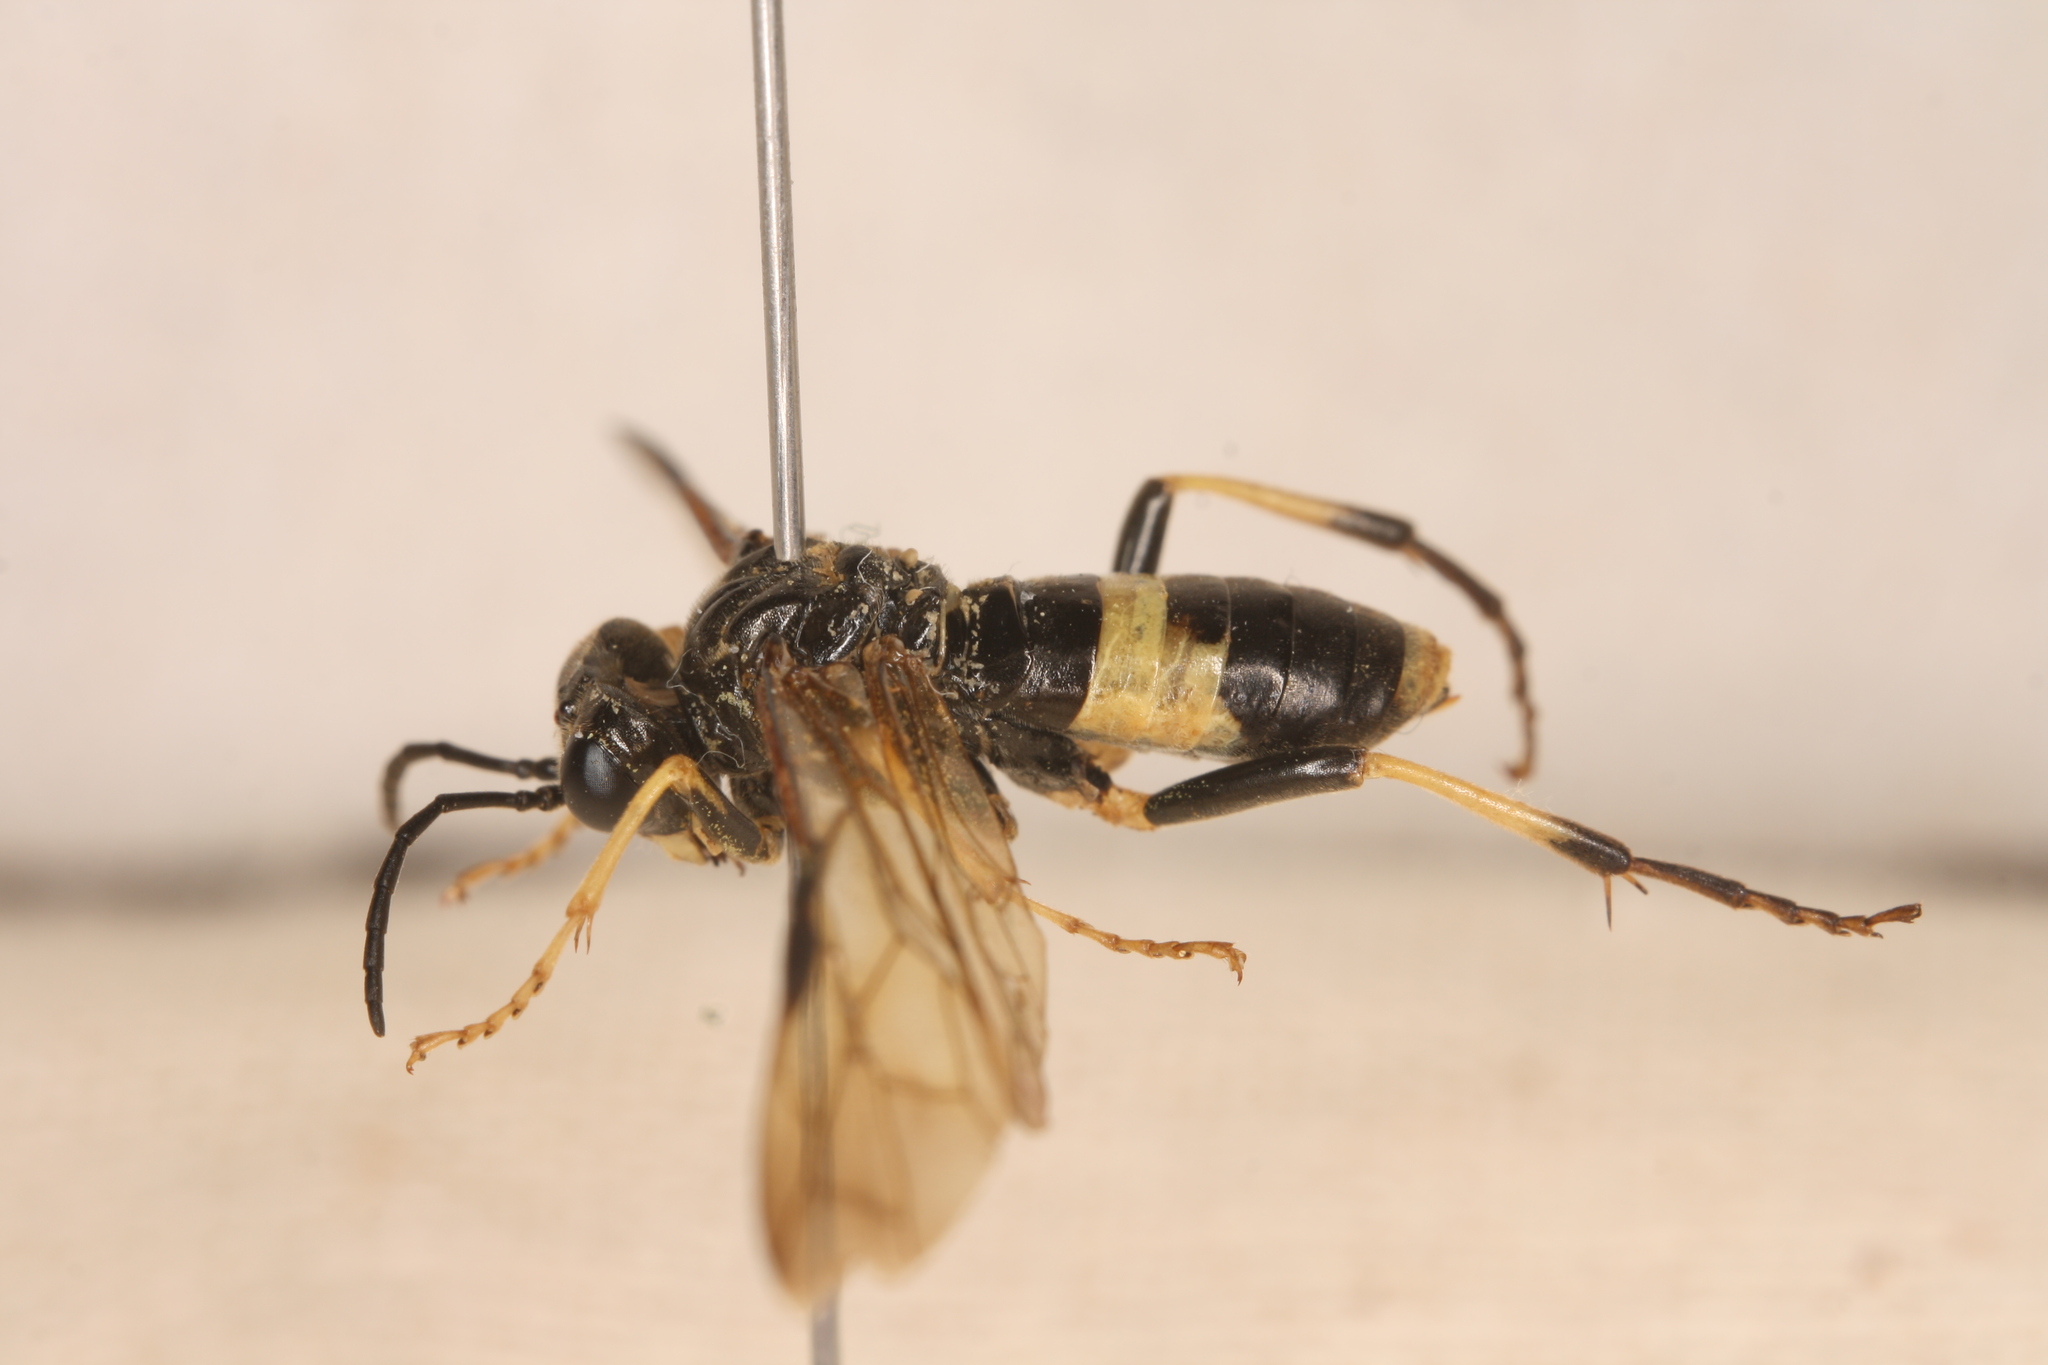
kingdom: Animalia
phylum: Arthropoda
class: Insecta
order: Hymenoptera
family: Tenthredinidae
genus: Tenthredo
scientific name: Tenthredo temula
